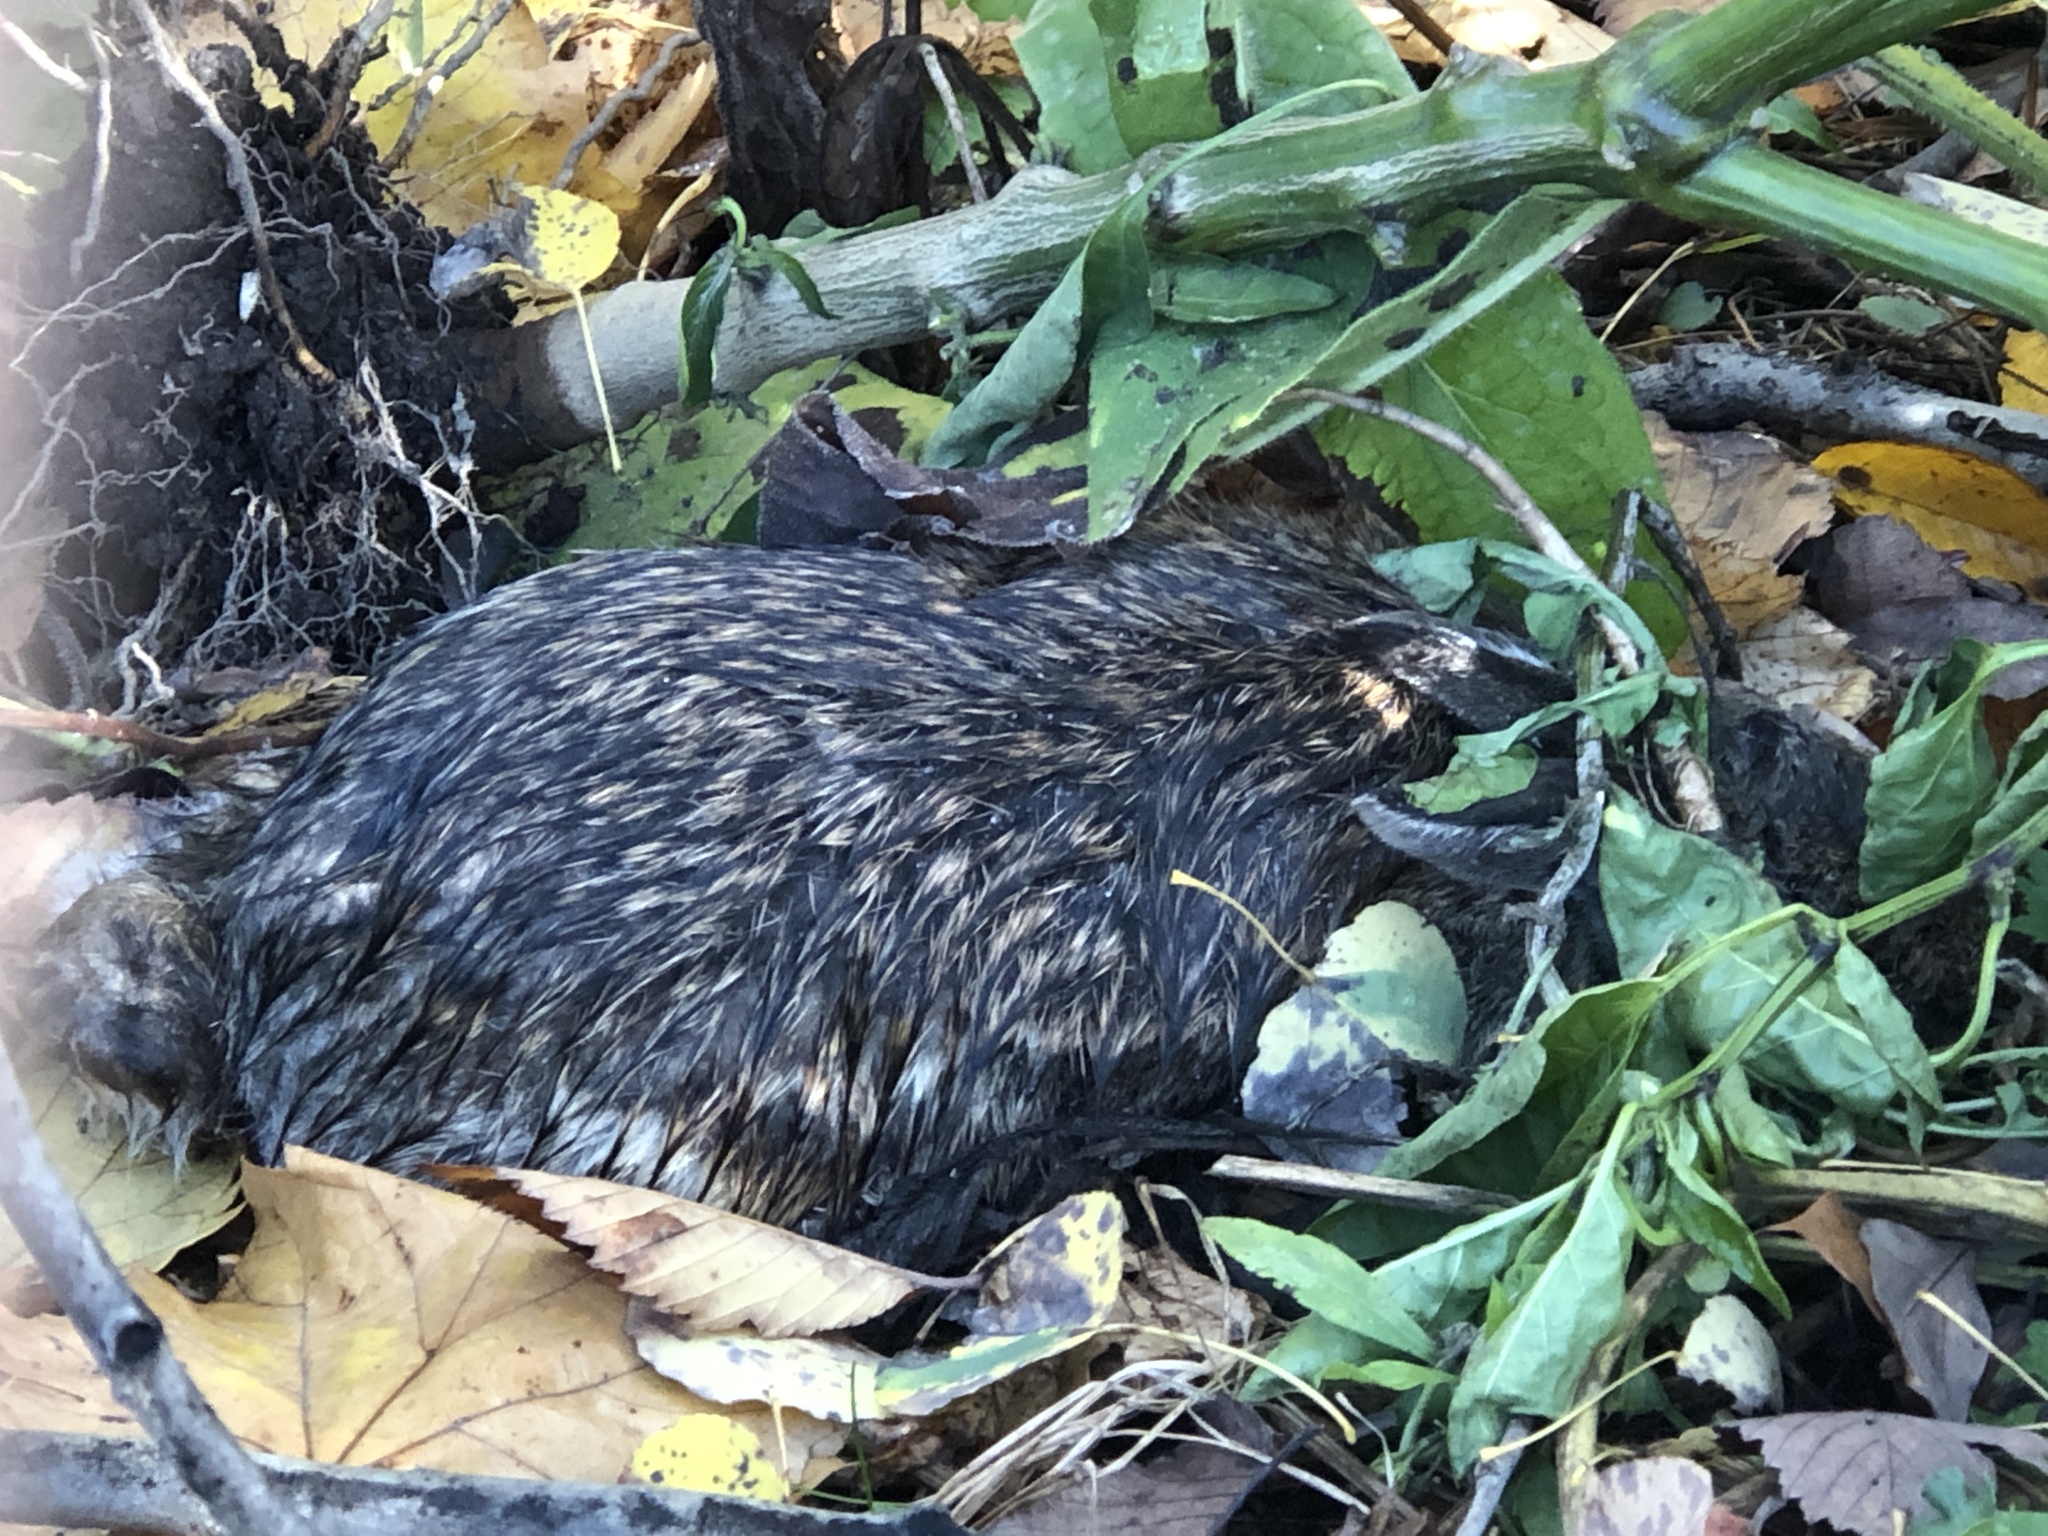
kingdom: Animalia
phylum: Chordata
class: Mammalia
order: Lagomorpha
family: Leporidae
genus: Sylvilagus
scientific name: Sylvilagus floridanus
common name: Eastern cottontail
